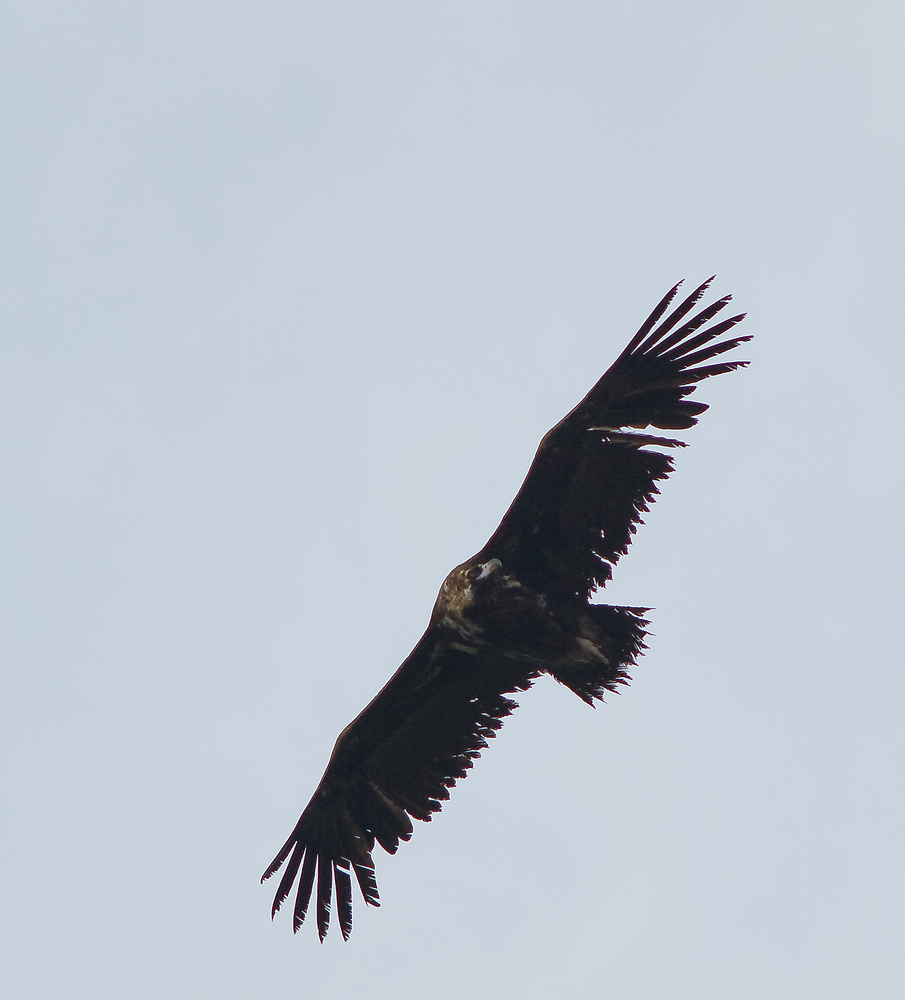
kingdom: Animalia
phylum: Chordata
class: Aves
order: Accipitriformes
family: Accipitridae
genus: Aegypius
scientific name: Aegypius monachus
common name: Cinereous vulture
